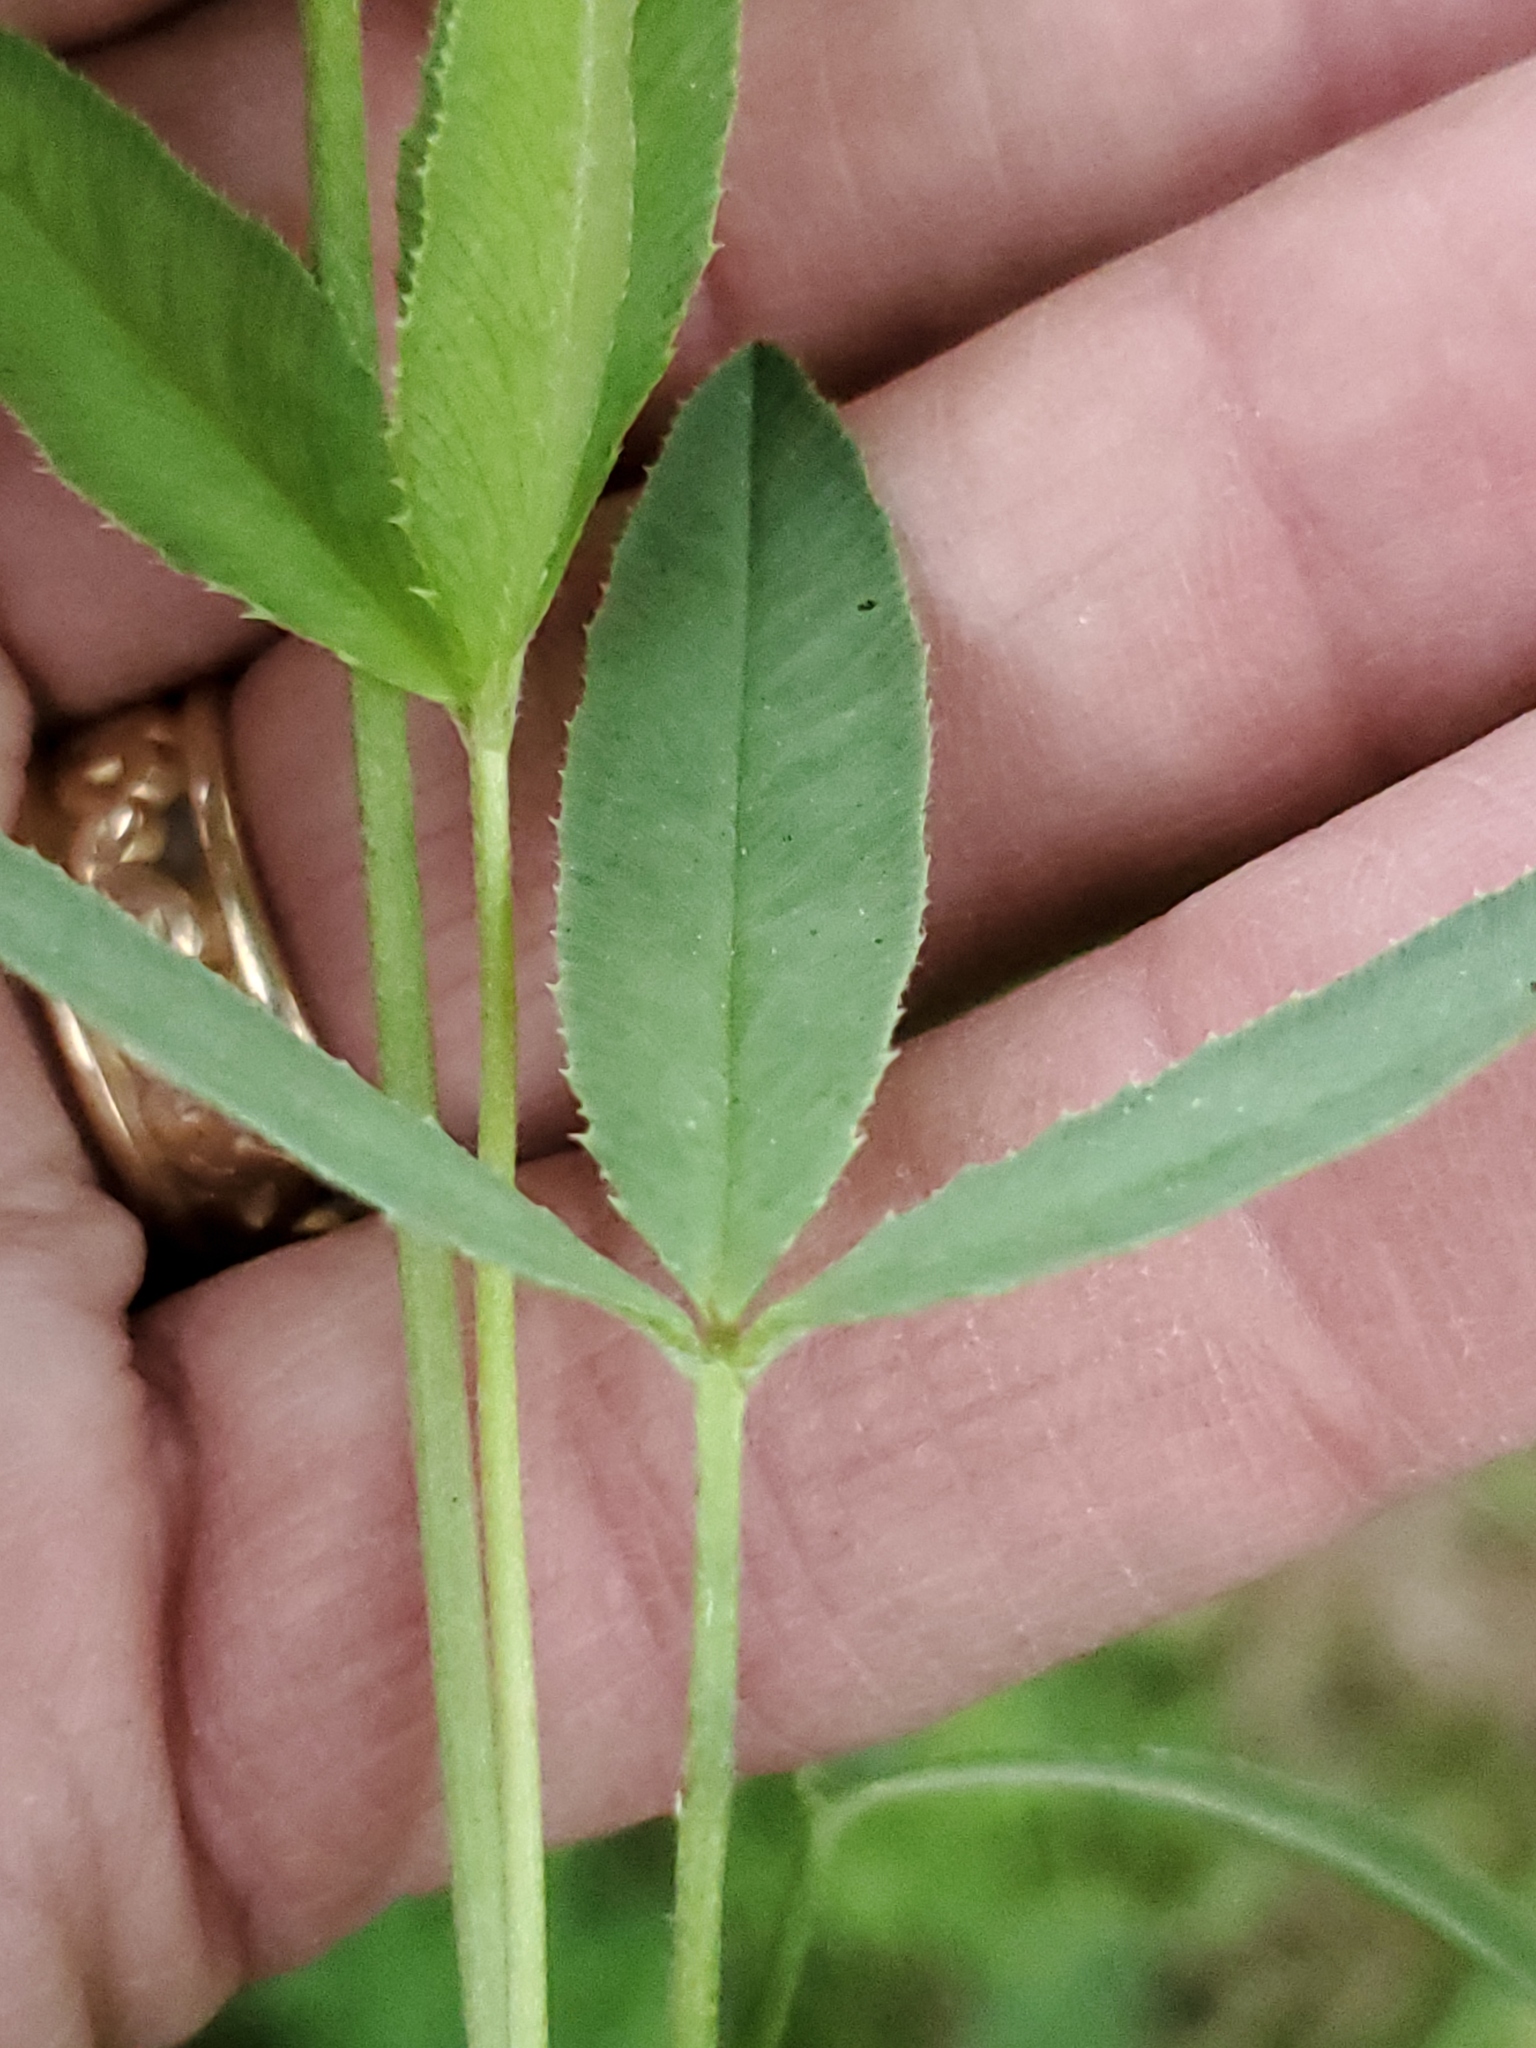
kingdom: Plantae
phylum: Tracheophyta
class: Magnoliopsida
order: Fabales
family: Fabaceae
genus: Trifolium
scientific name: Trifolium longipes
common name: Long-stalk clover
